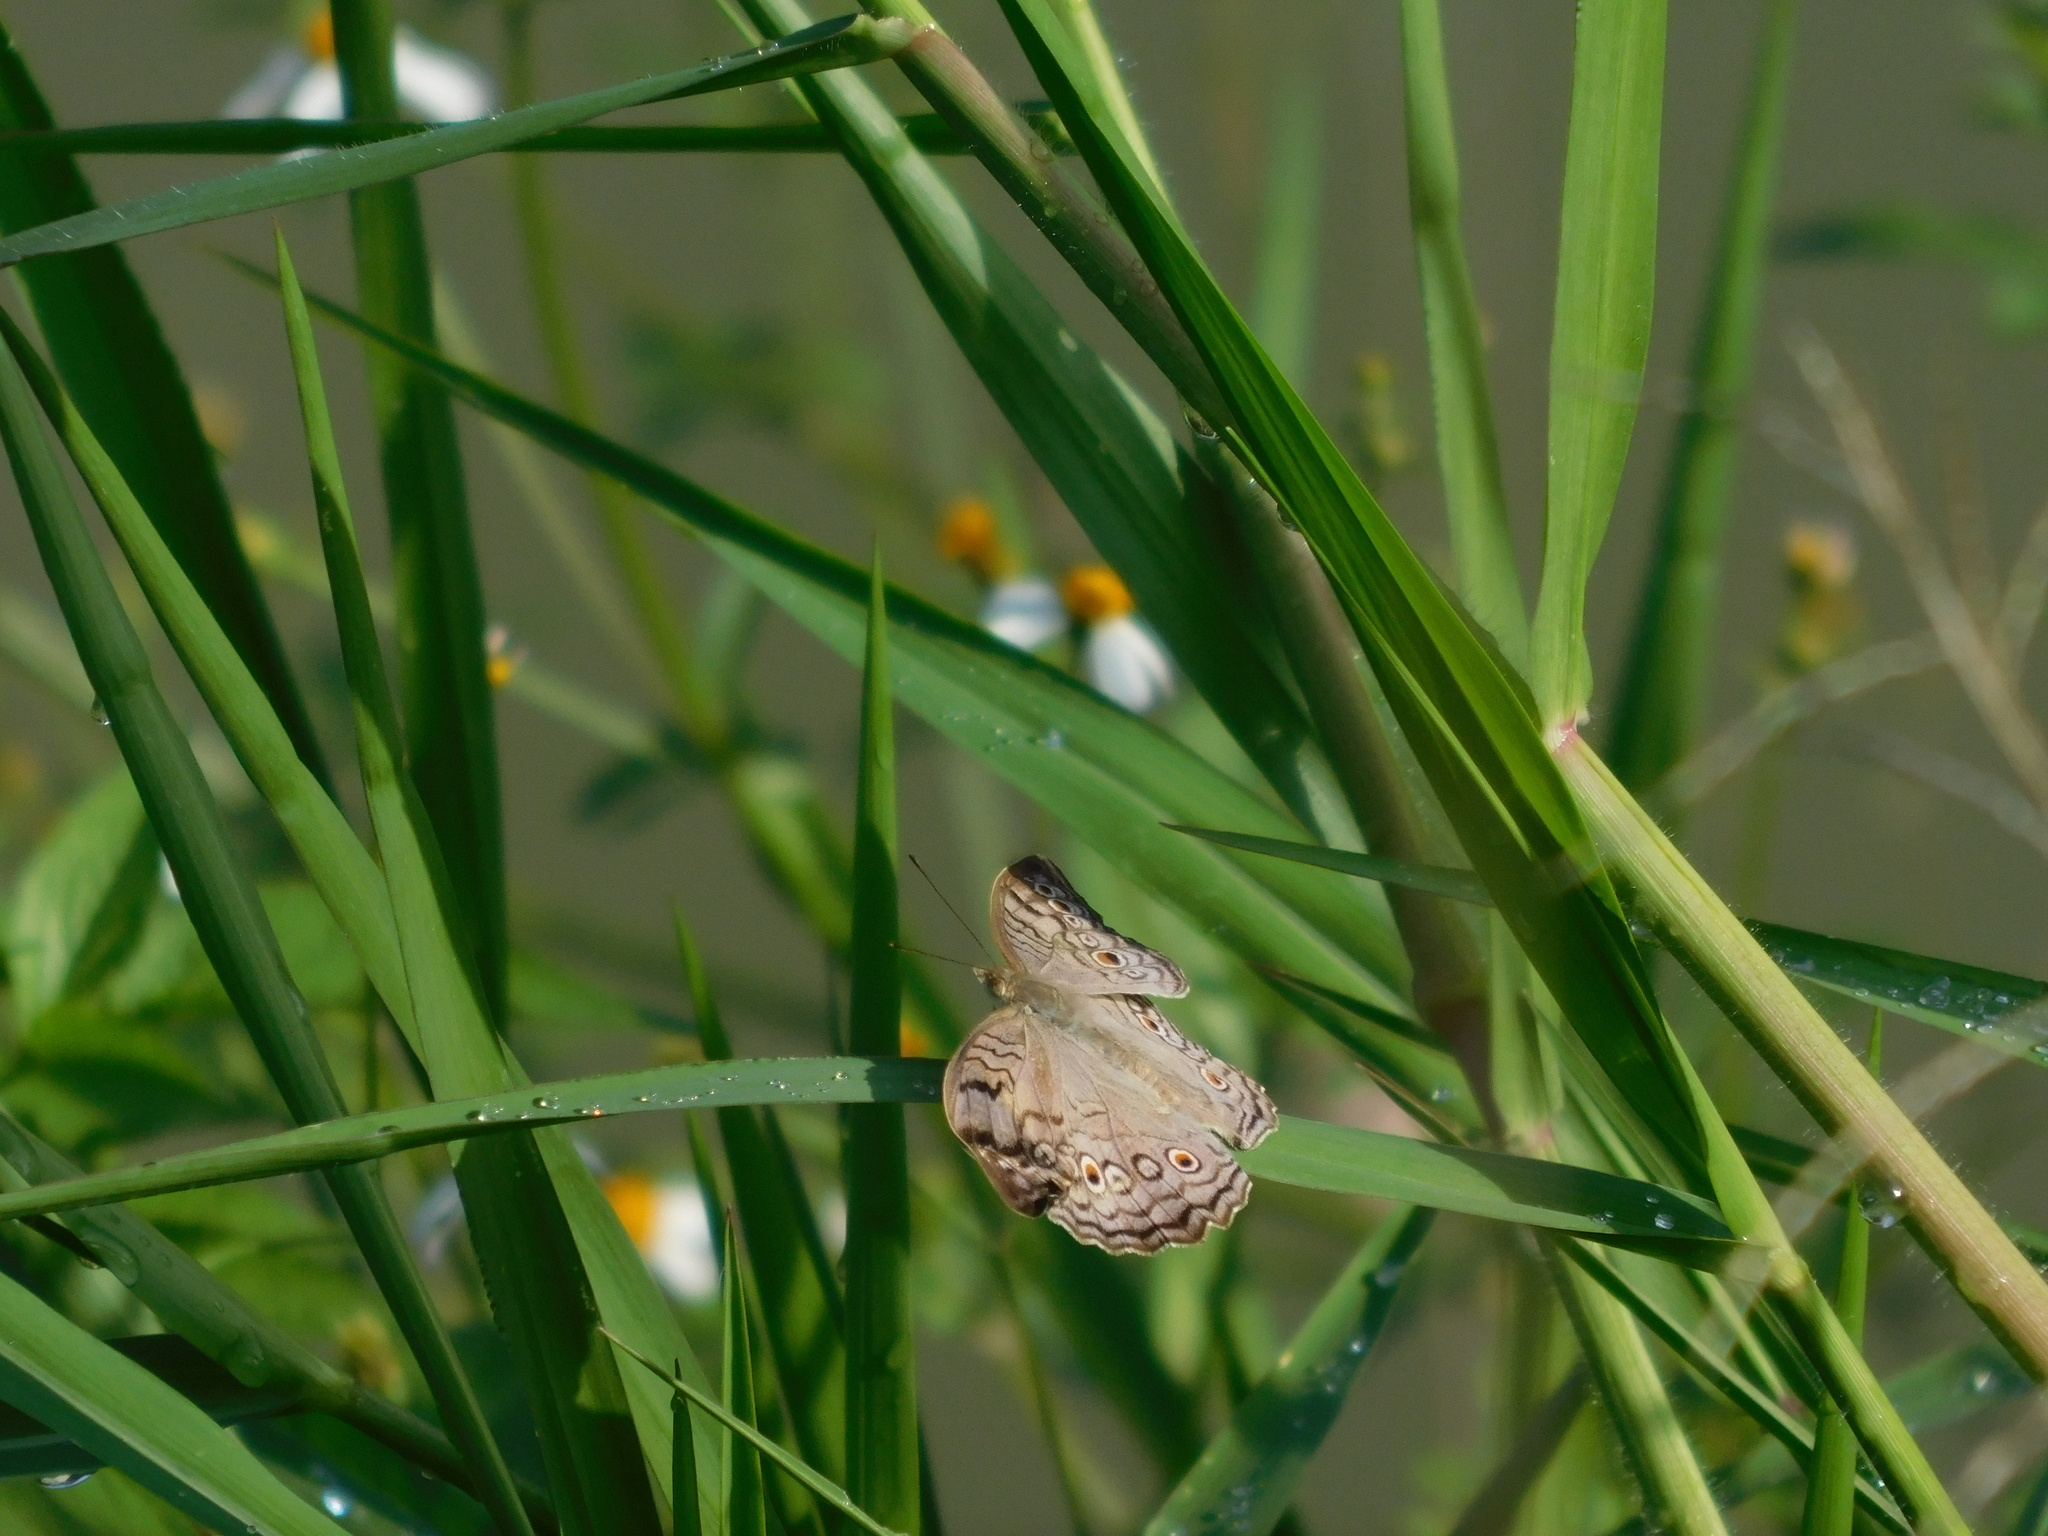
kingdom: Animalia
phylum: Arthropoda
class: Insecta
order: Lepidoptera
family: Nymphalidae
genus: Junonia
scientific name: Junonia atlites
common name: Grey pansy
